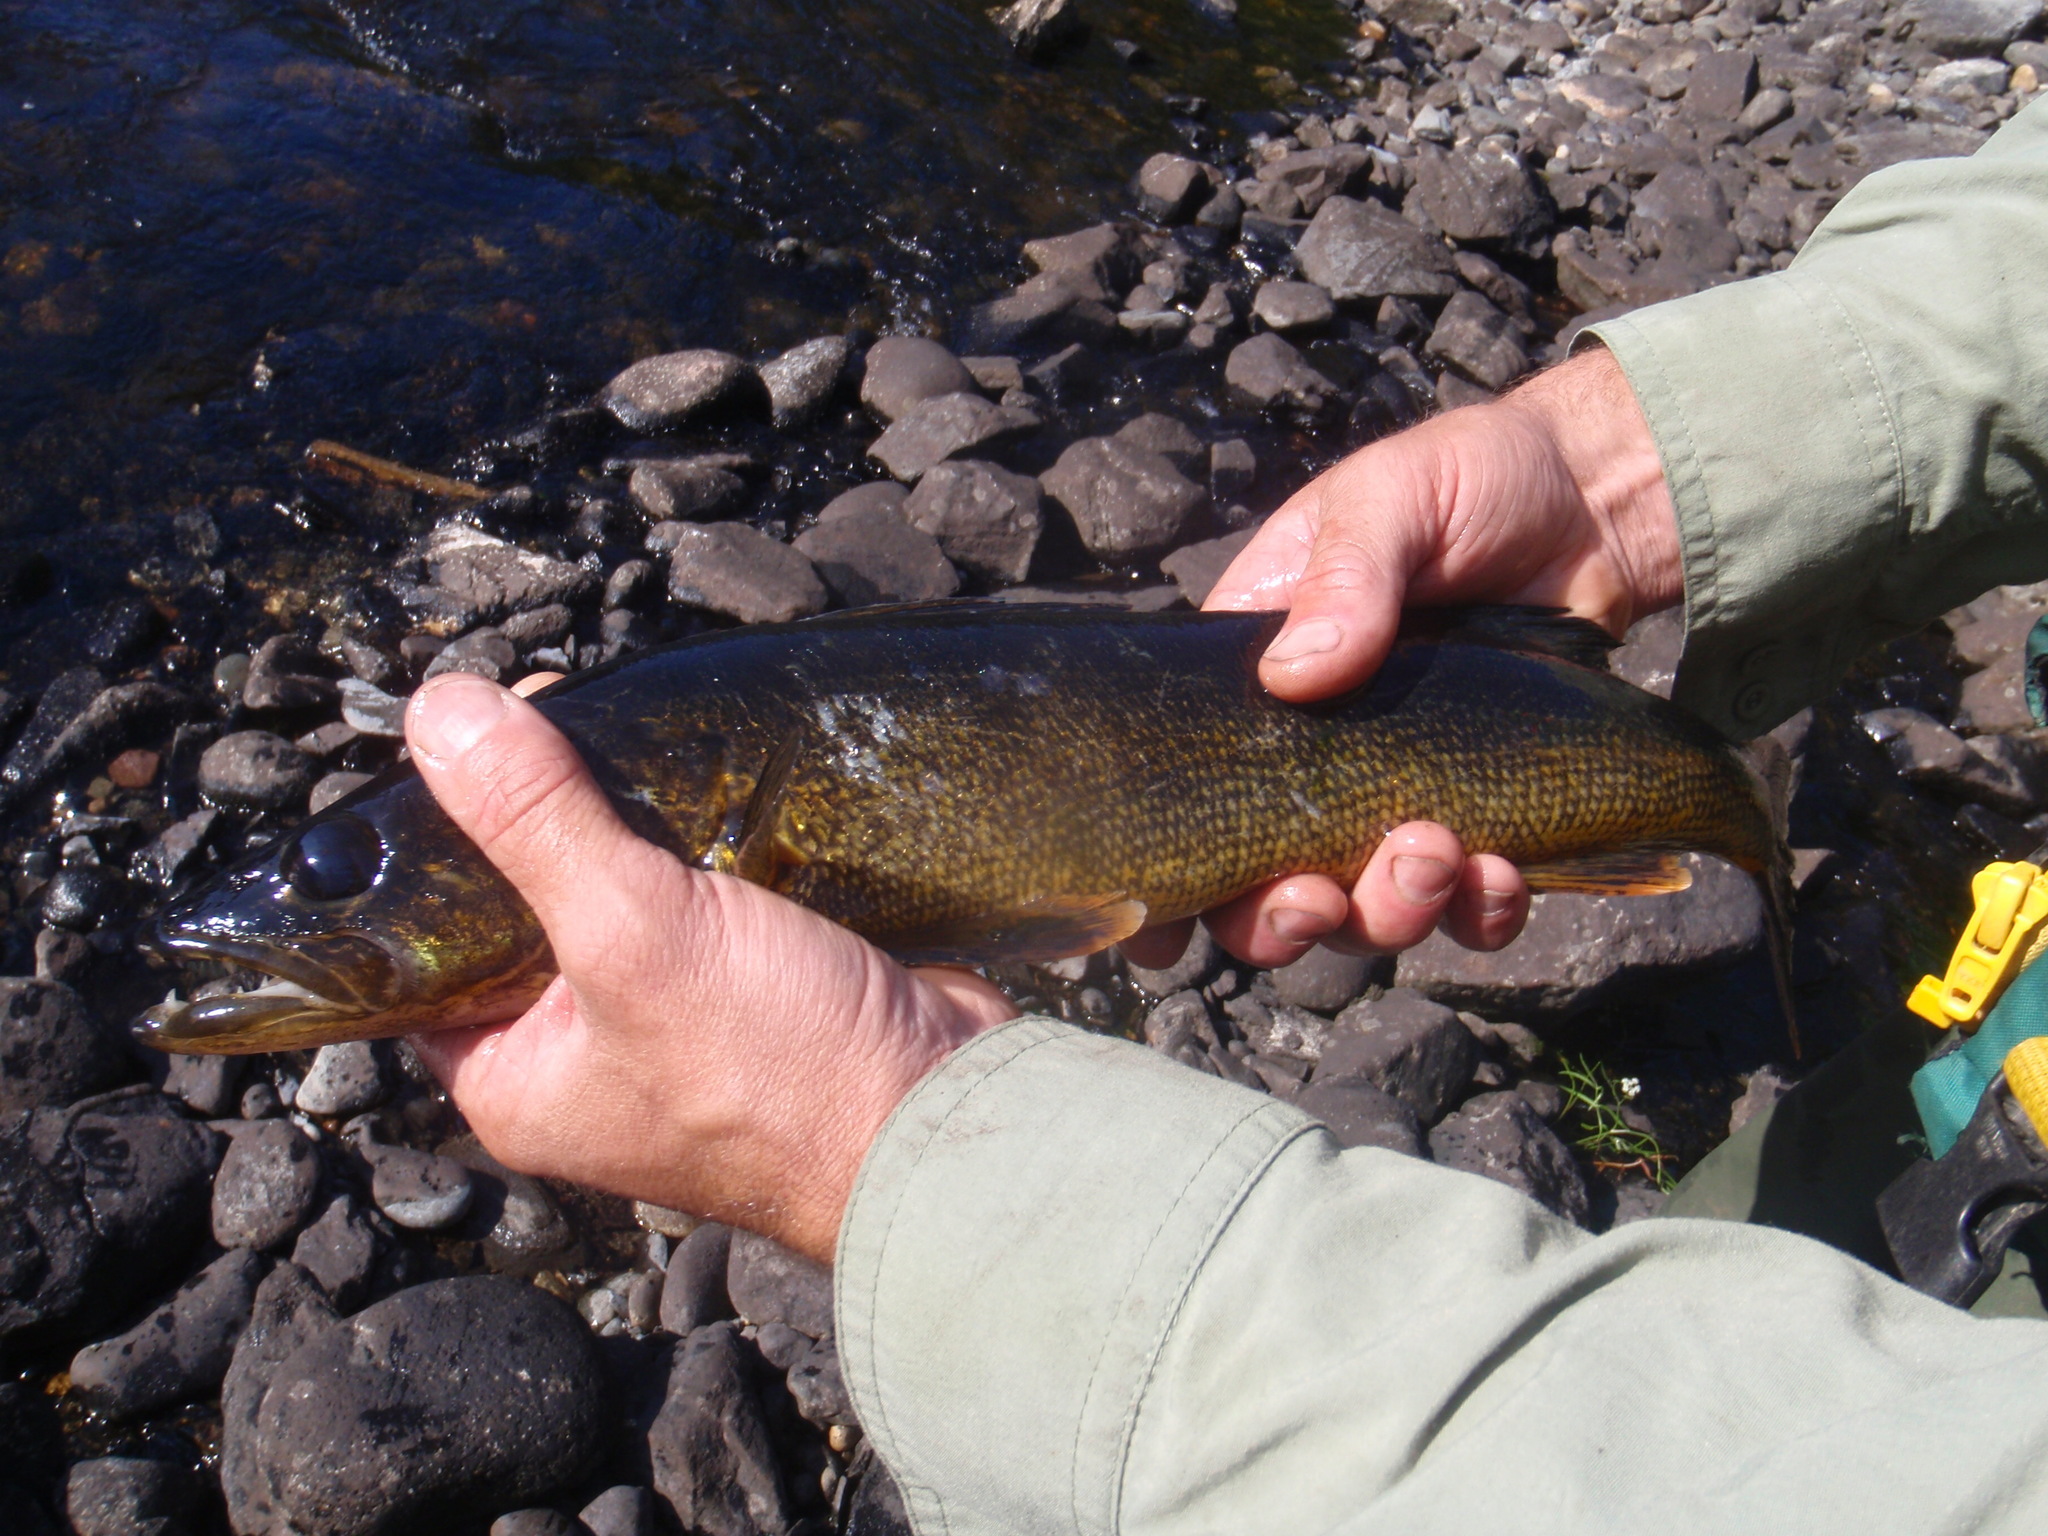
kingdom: Animalia
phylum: Chordata
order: Perciformes
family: Percidae
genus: Sander
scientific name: Sander vitreus
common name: Walleye
